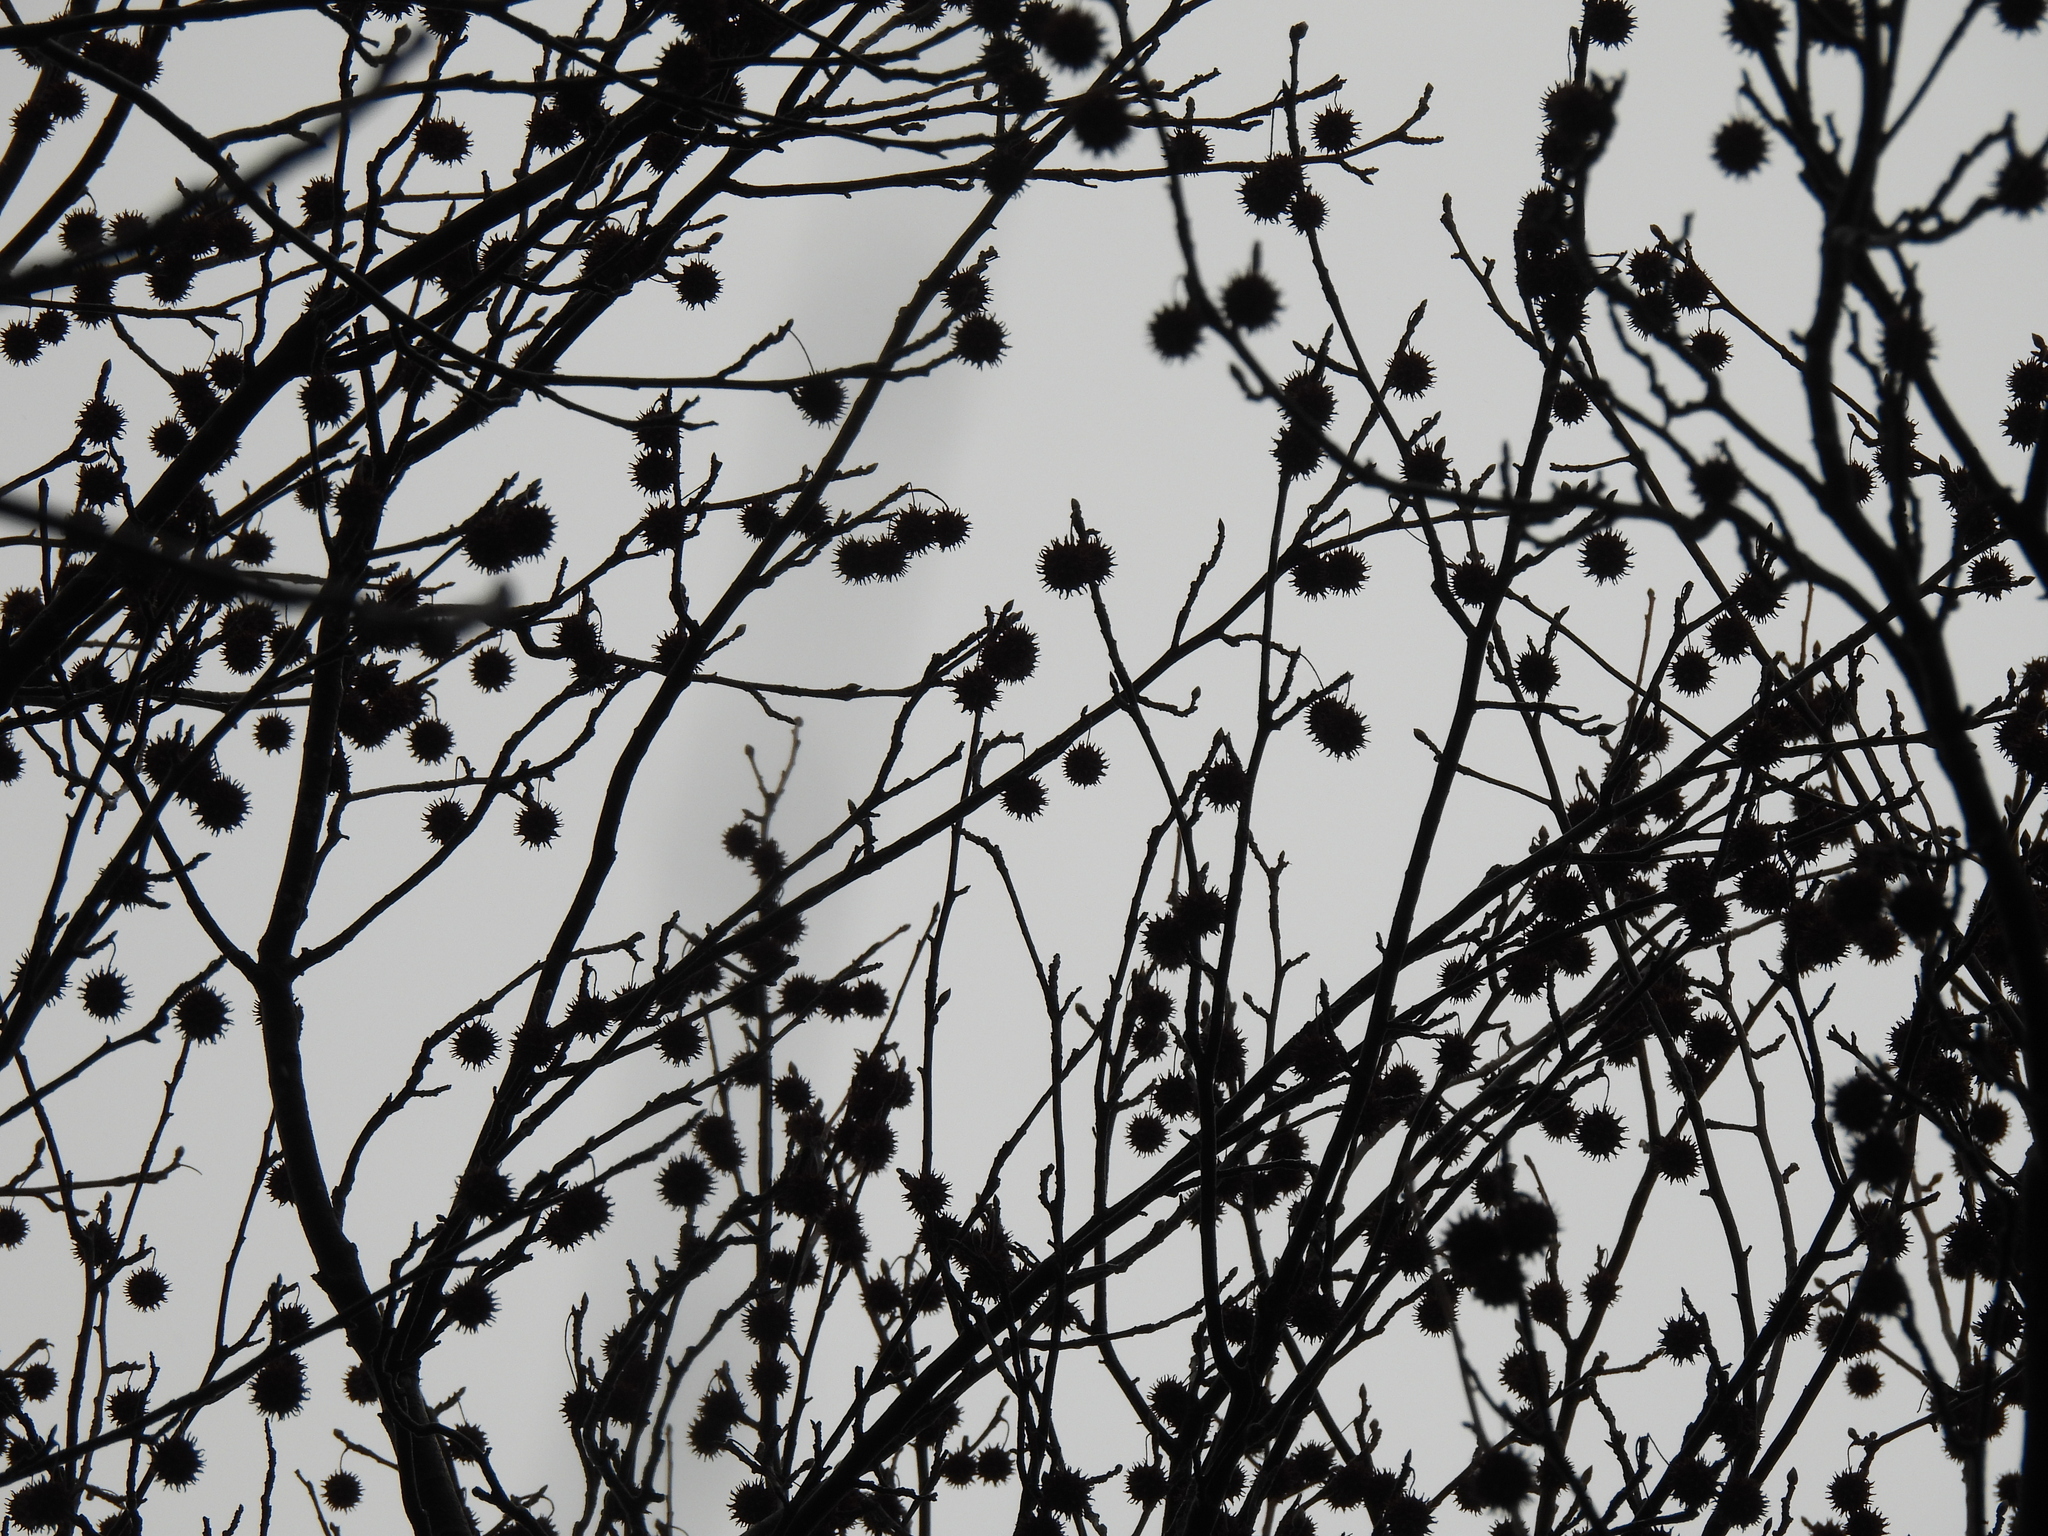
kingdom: Plantae
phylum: Tracheophyta
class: Magnoliopsida
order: Saxifragales
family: Altingiaceae
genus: Liquidambar
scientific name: Liquidambar styraciflua
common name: Sweet gum
